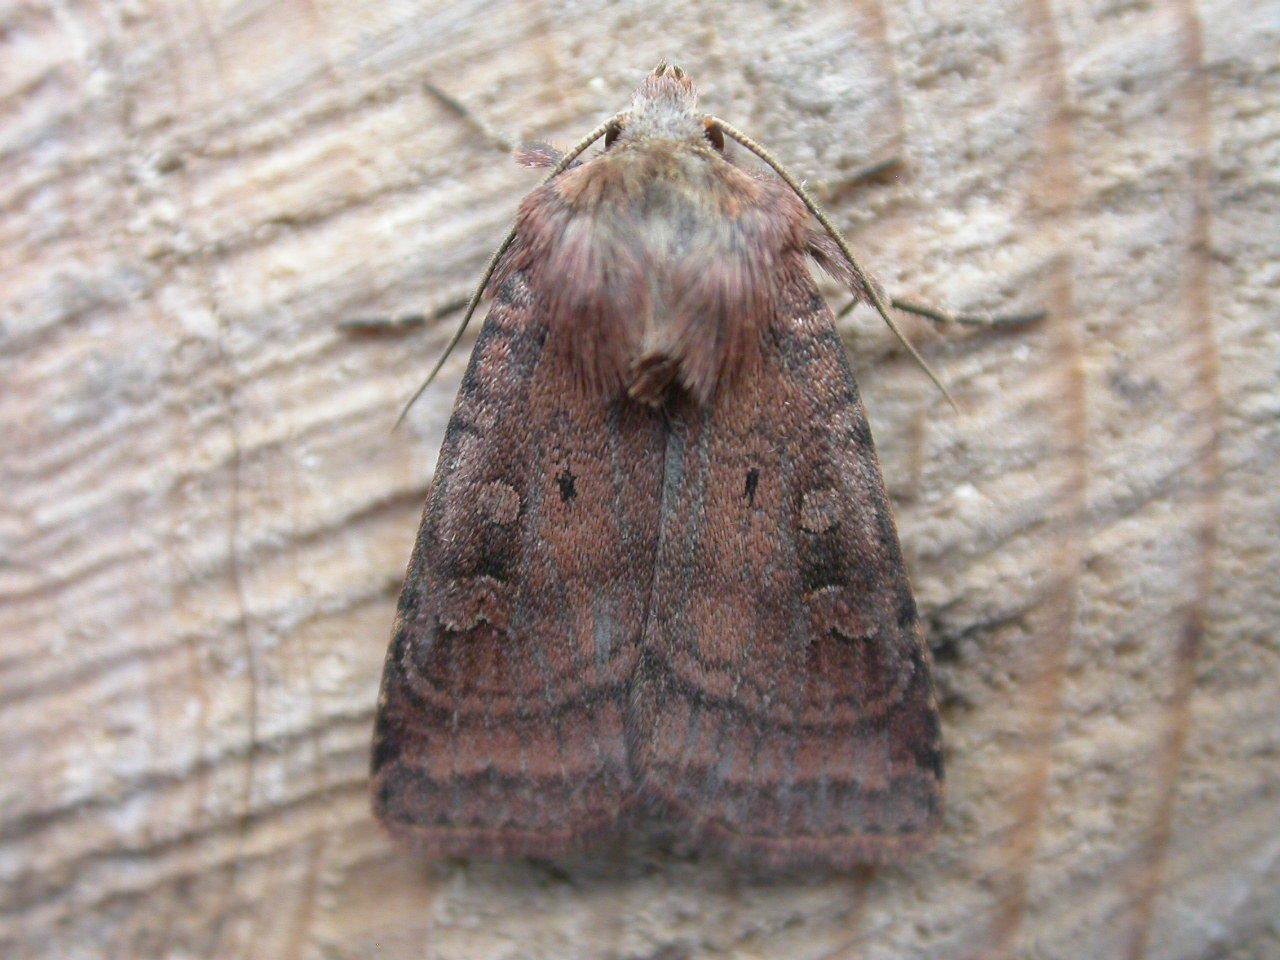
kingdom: Animalia
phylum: Arthropoda
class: Insecta
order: Lepidoptera
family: Noctuidae
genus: Diarsia
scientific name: Diarsia rubi
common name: Small square-spot
